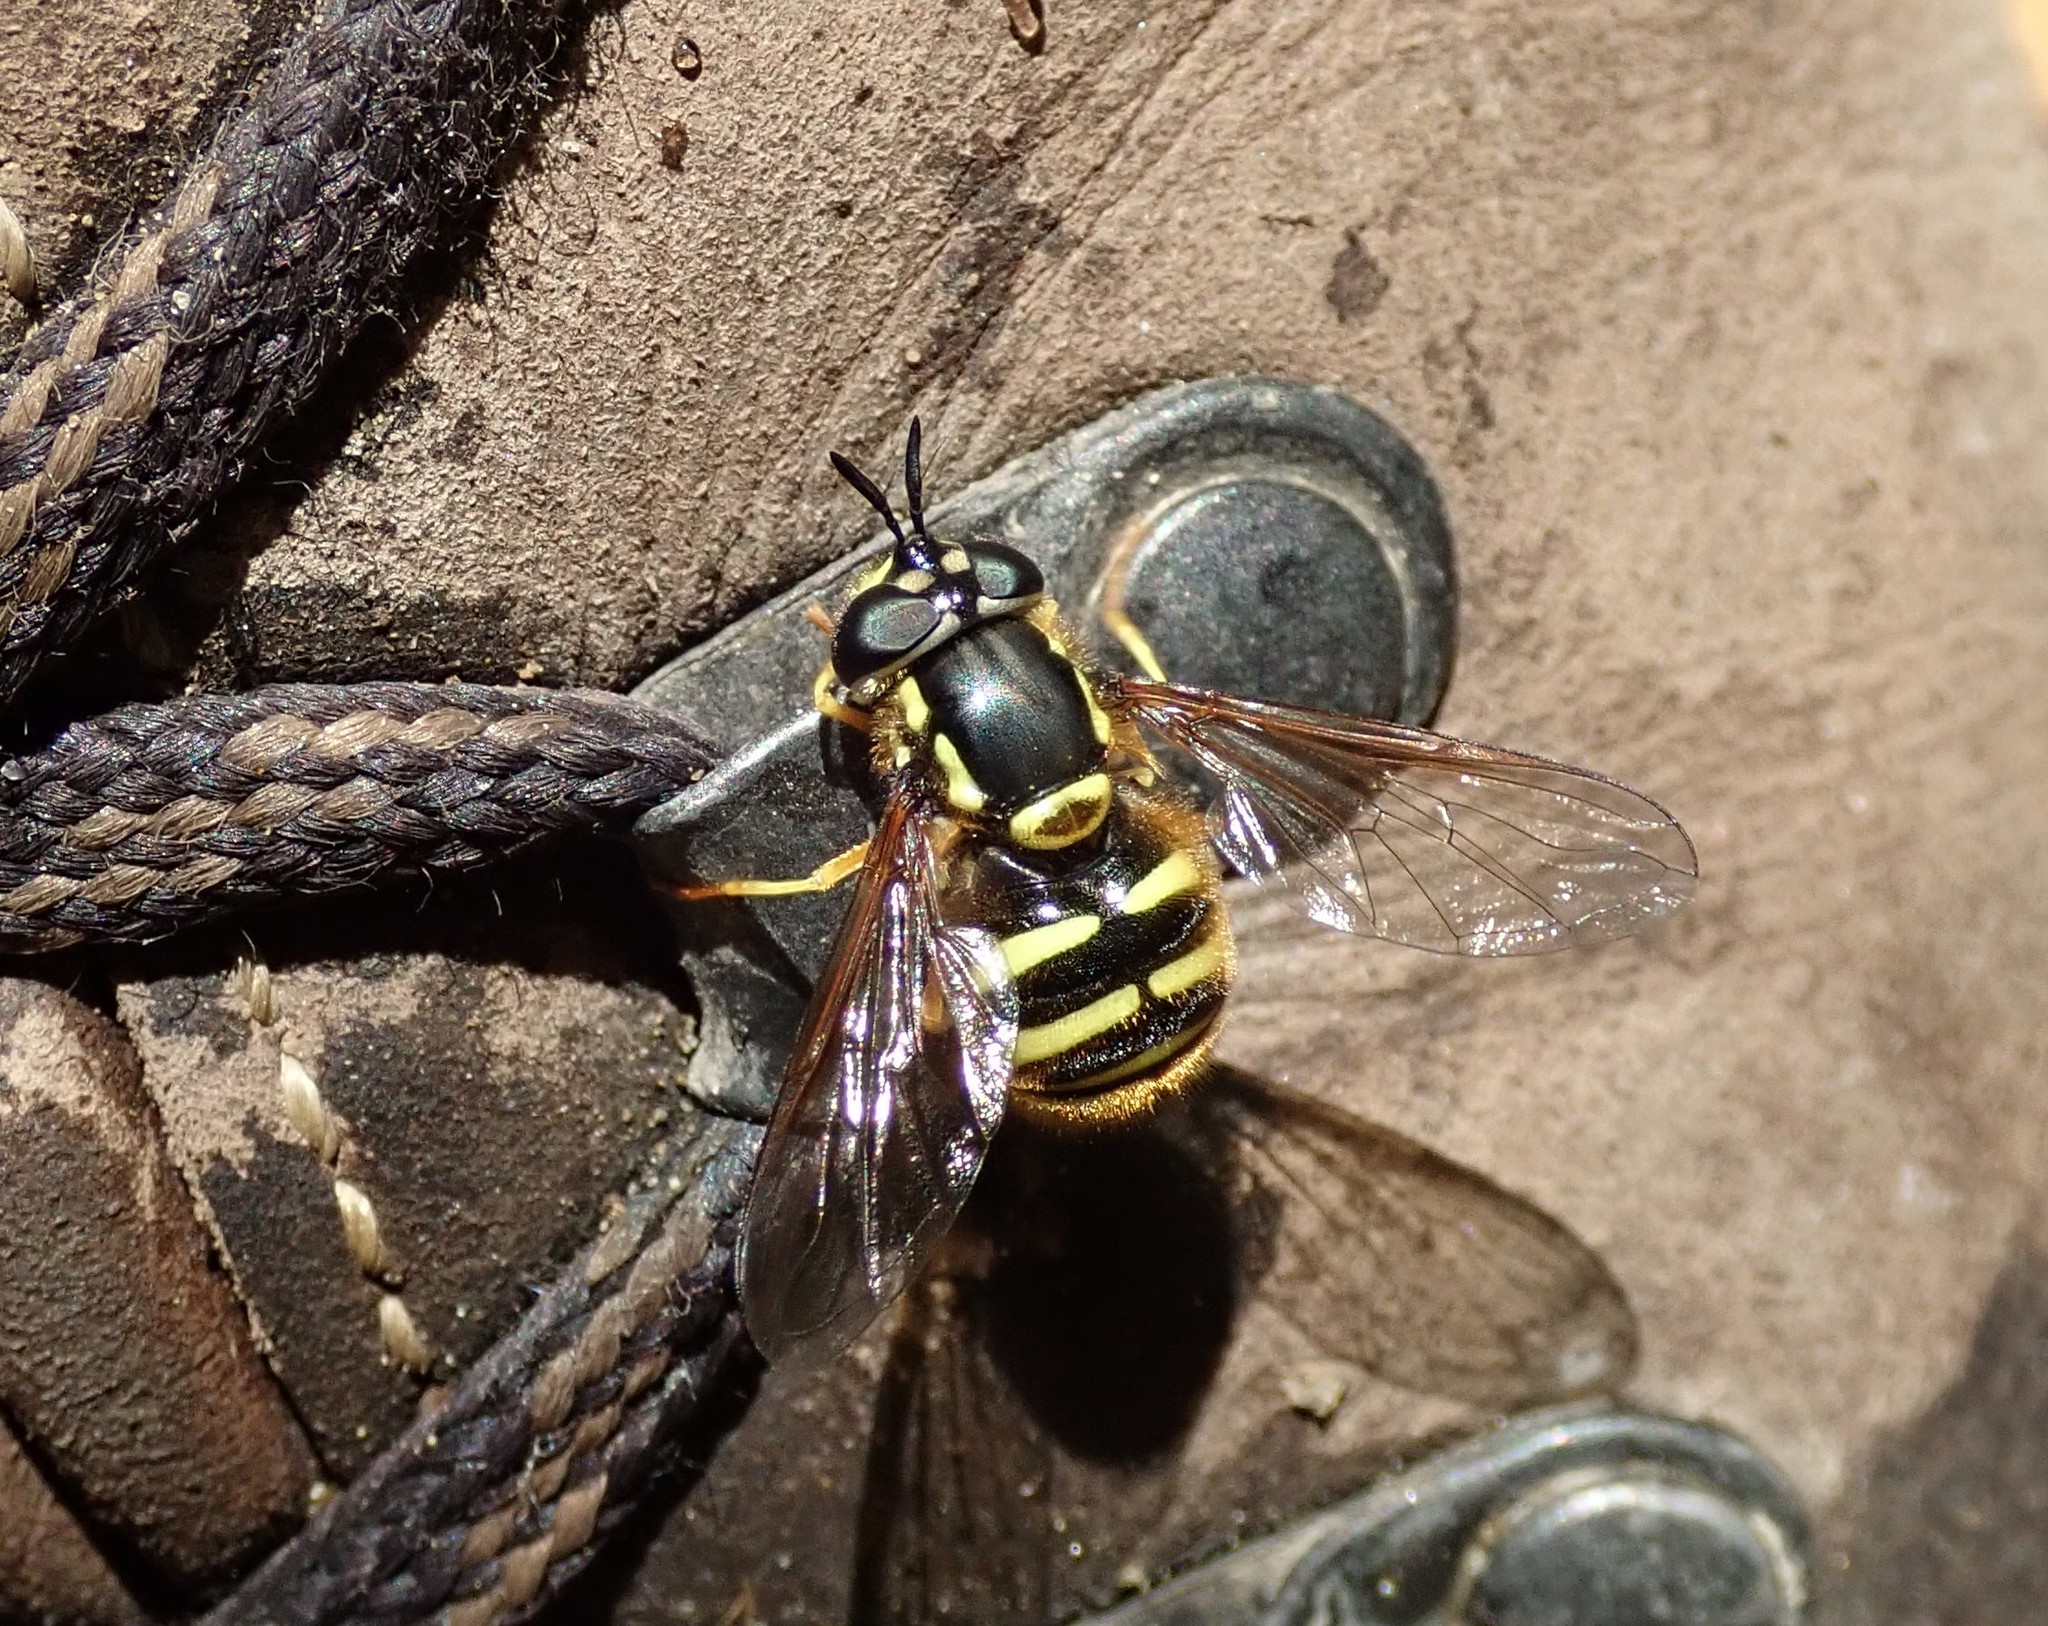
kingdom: Animalia
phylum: Arthropoda
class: Insecta
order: Diptera
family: Syrphidae
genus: Chrysotoxum
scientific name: Chrysotoxum arcuatum
